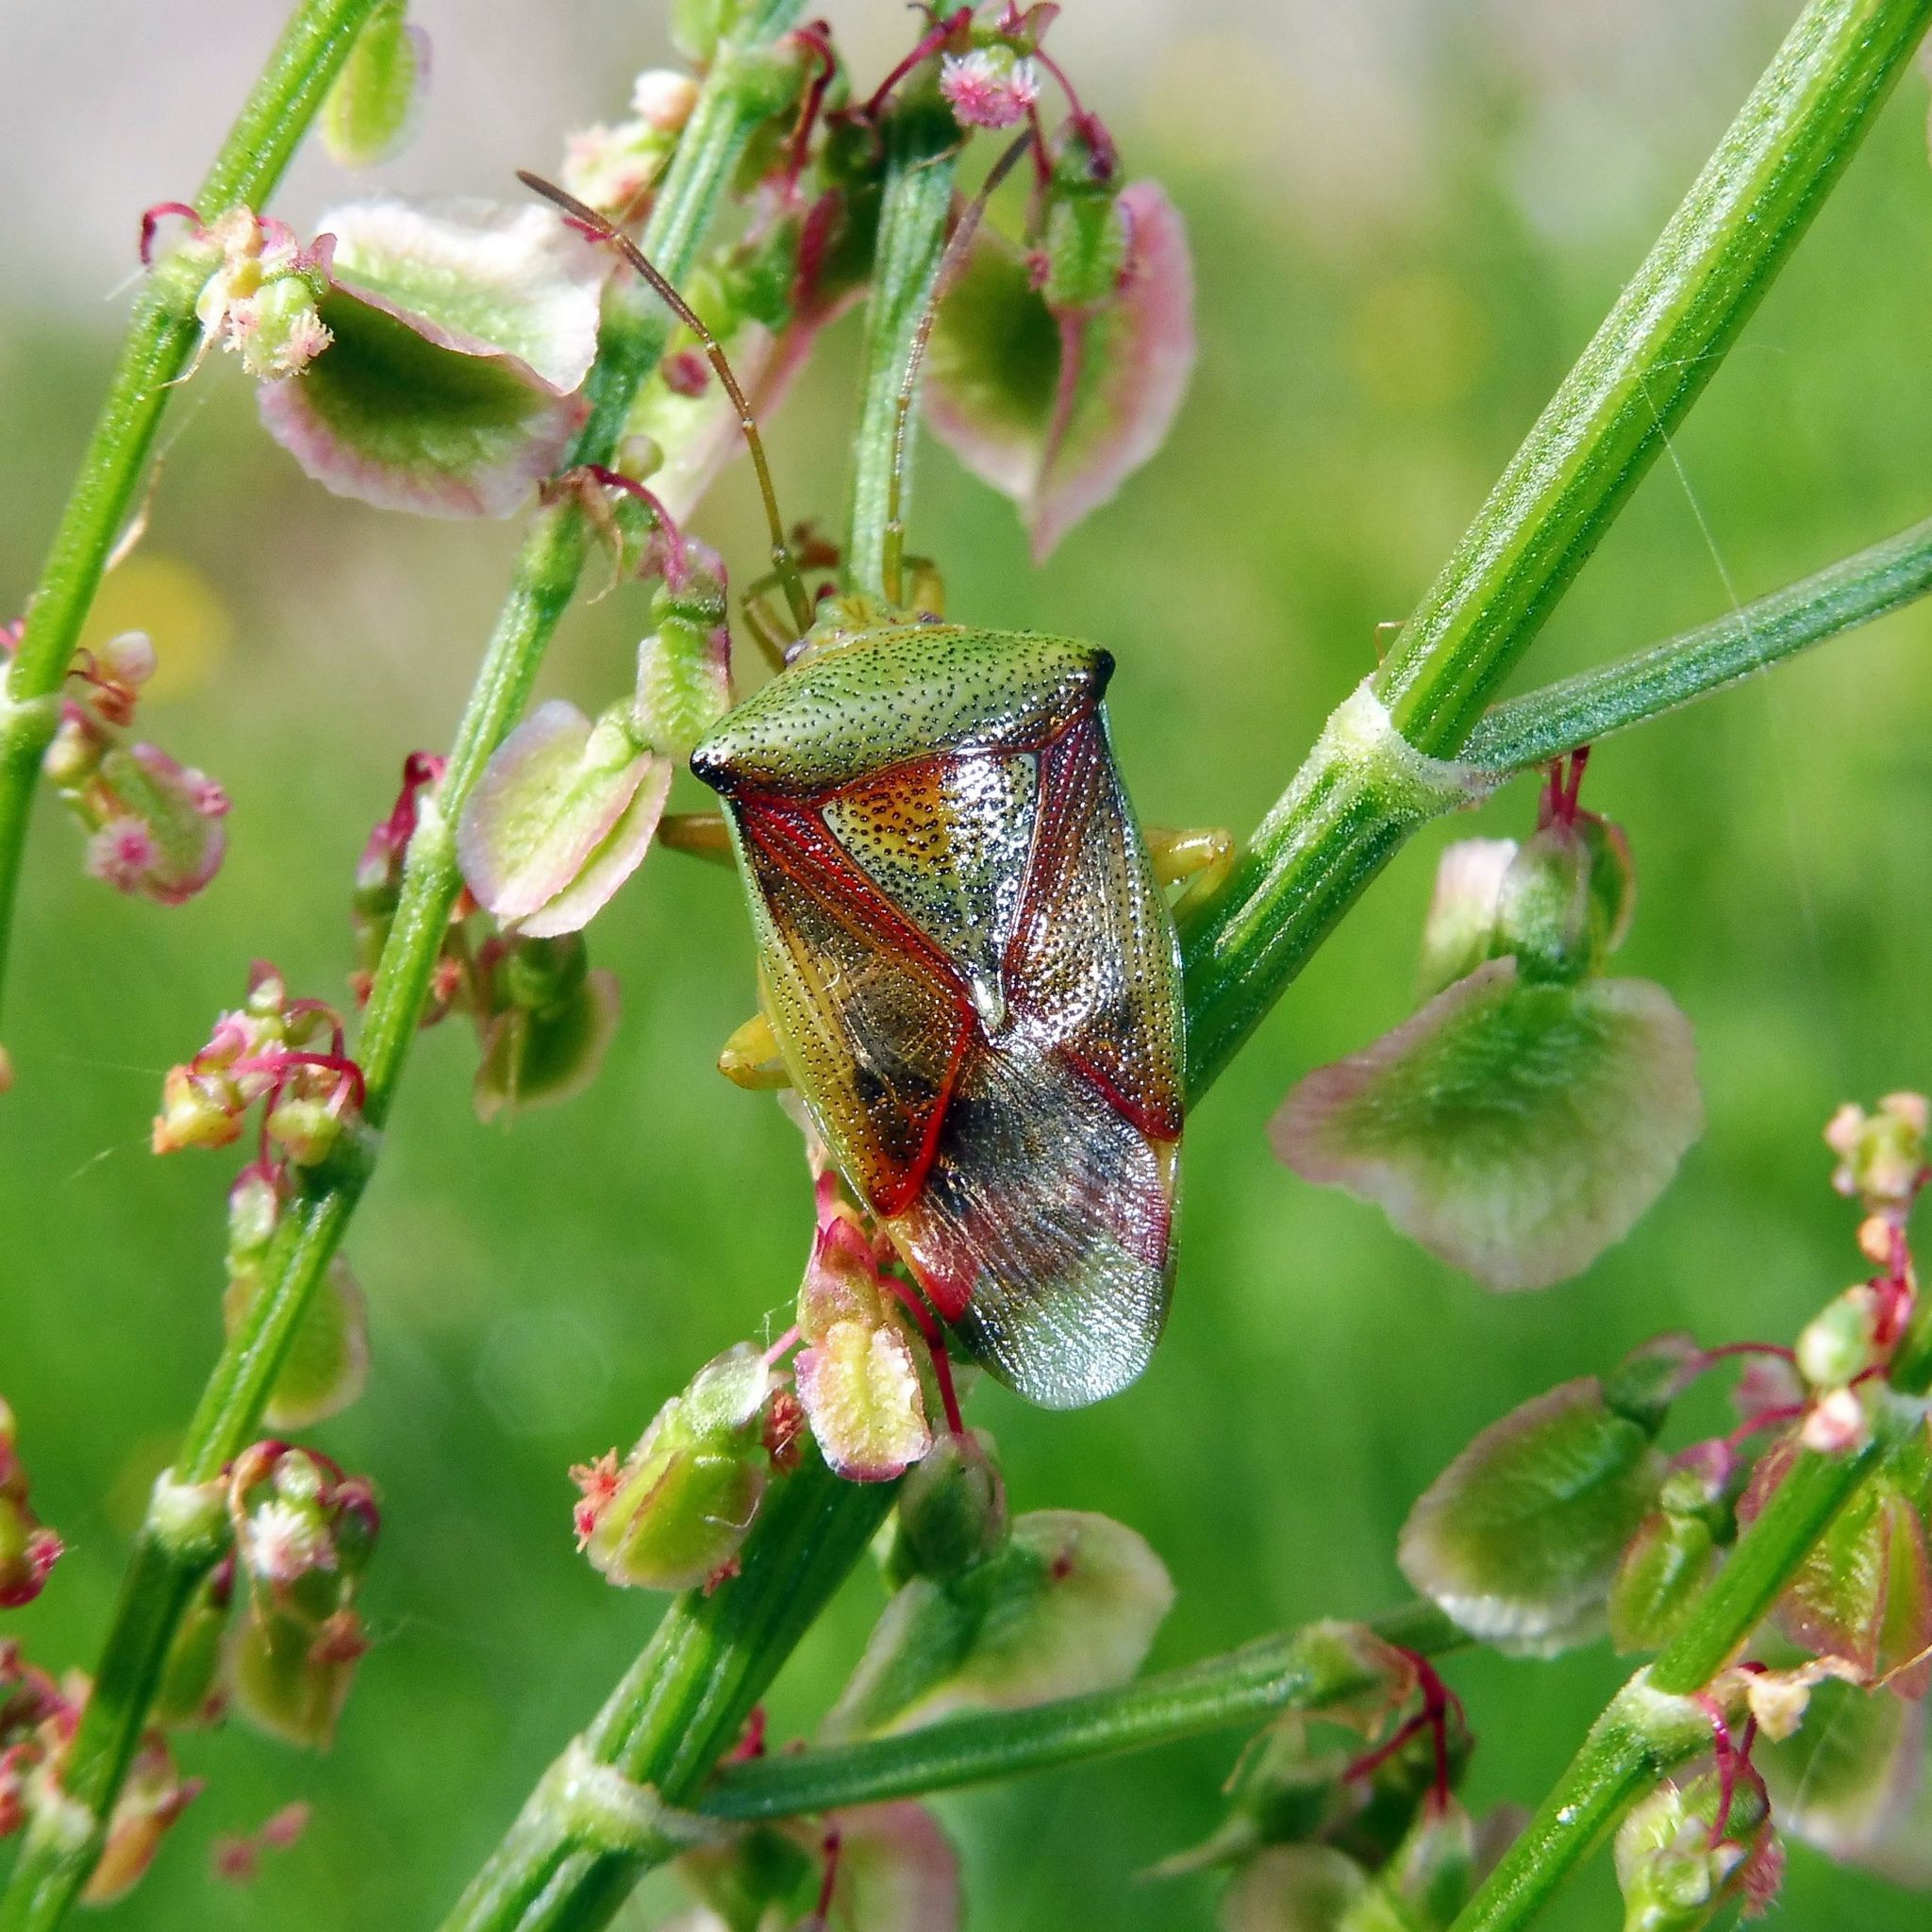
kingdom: Animalia
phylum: Arthropoda
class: Insecta
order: Hemiptera
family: Acanthosomatidae
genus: Elasmostethus
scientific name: Elasmostethus interstinctus
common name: Birch shieldbug
